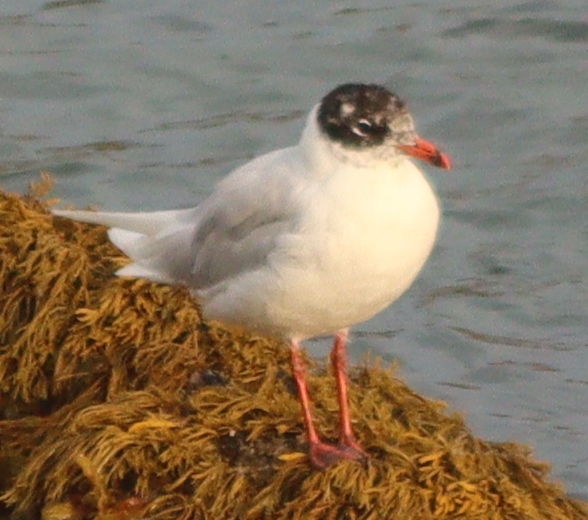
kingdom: Animalia
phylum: Chordata
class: Aves
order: Charadriiformes
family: Laridae
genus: Ichthyaetus
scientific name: Ichthyaetus melanocephalus
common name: Mediterranean gull
